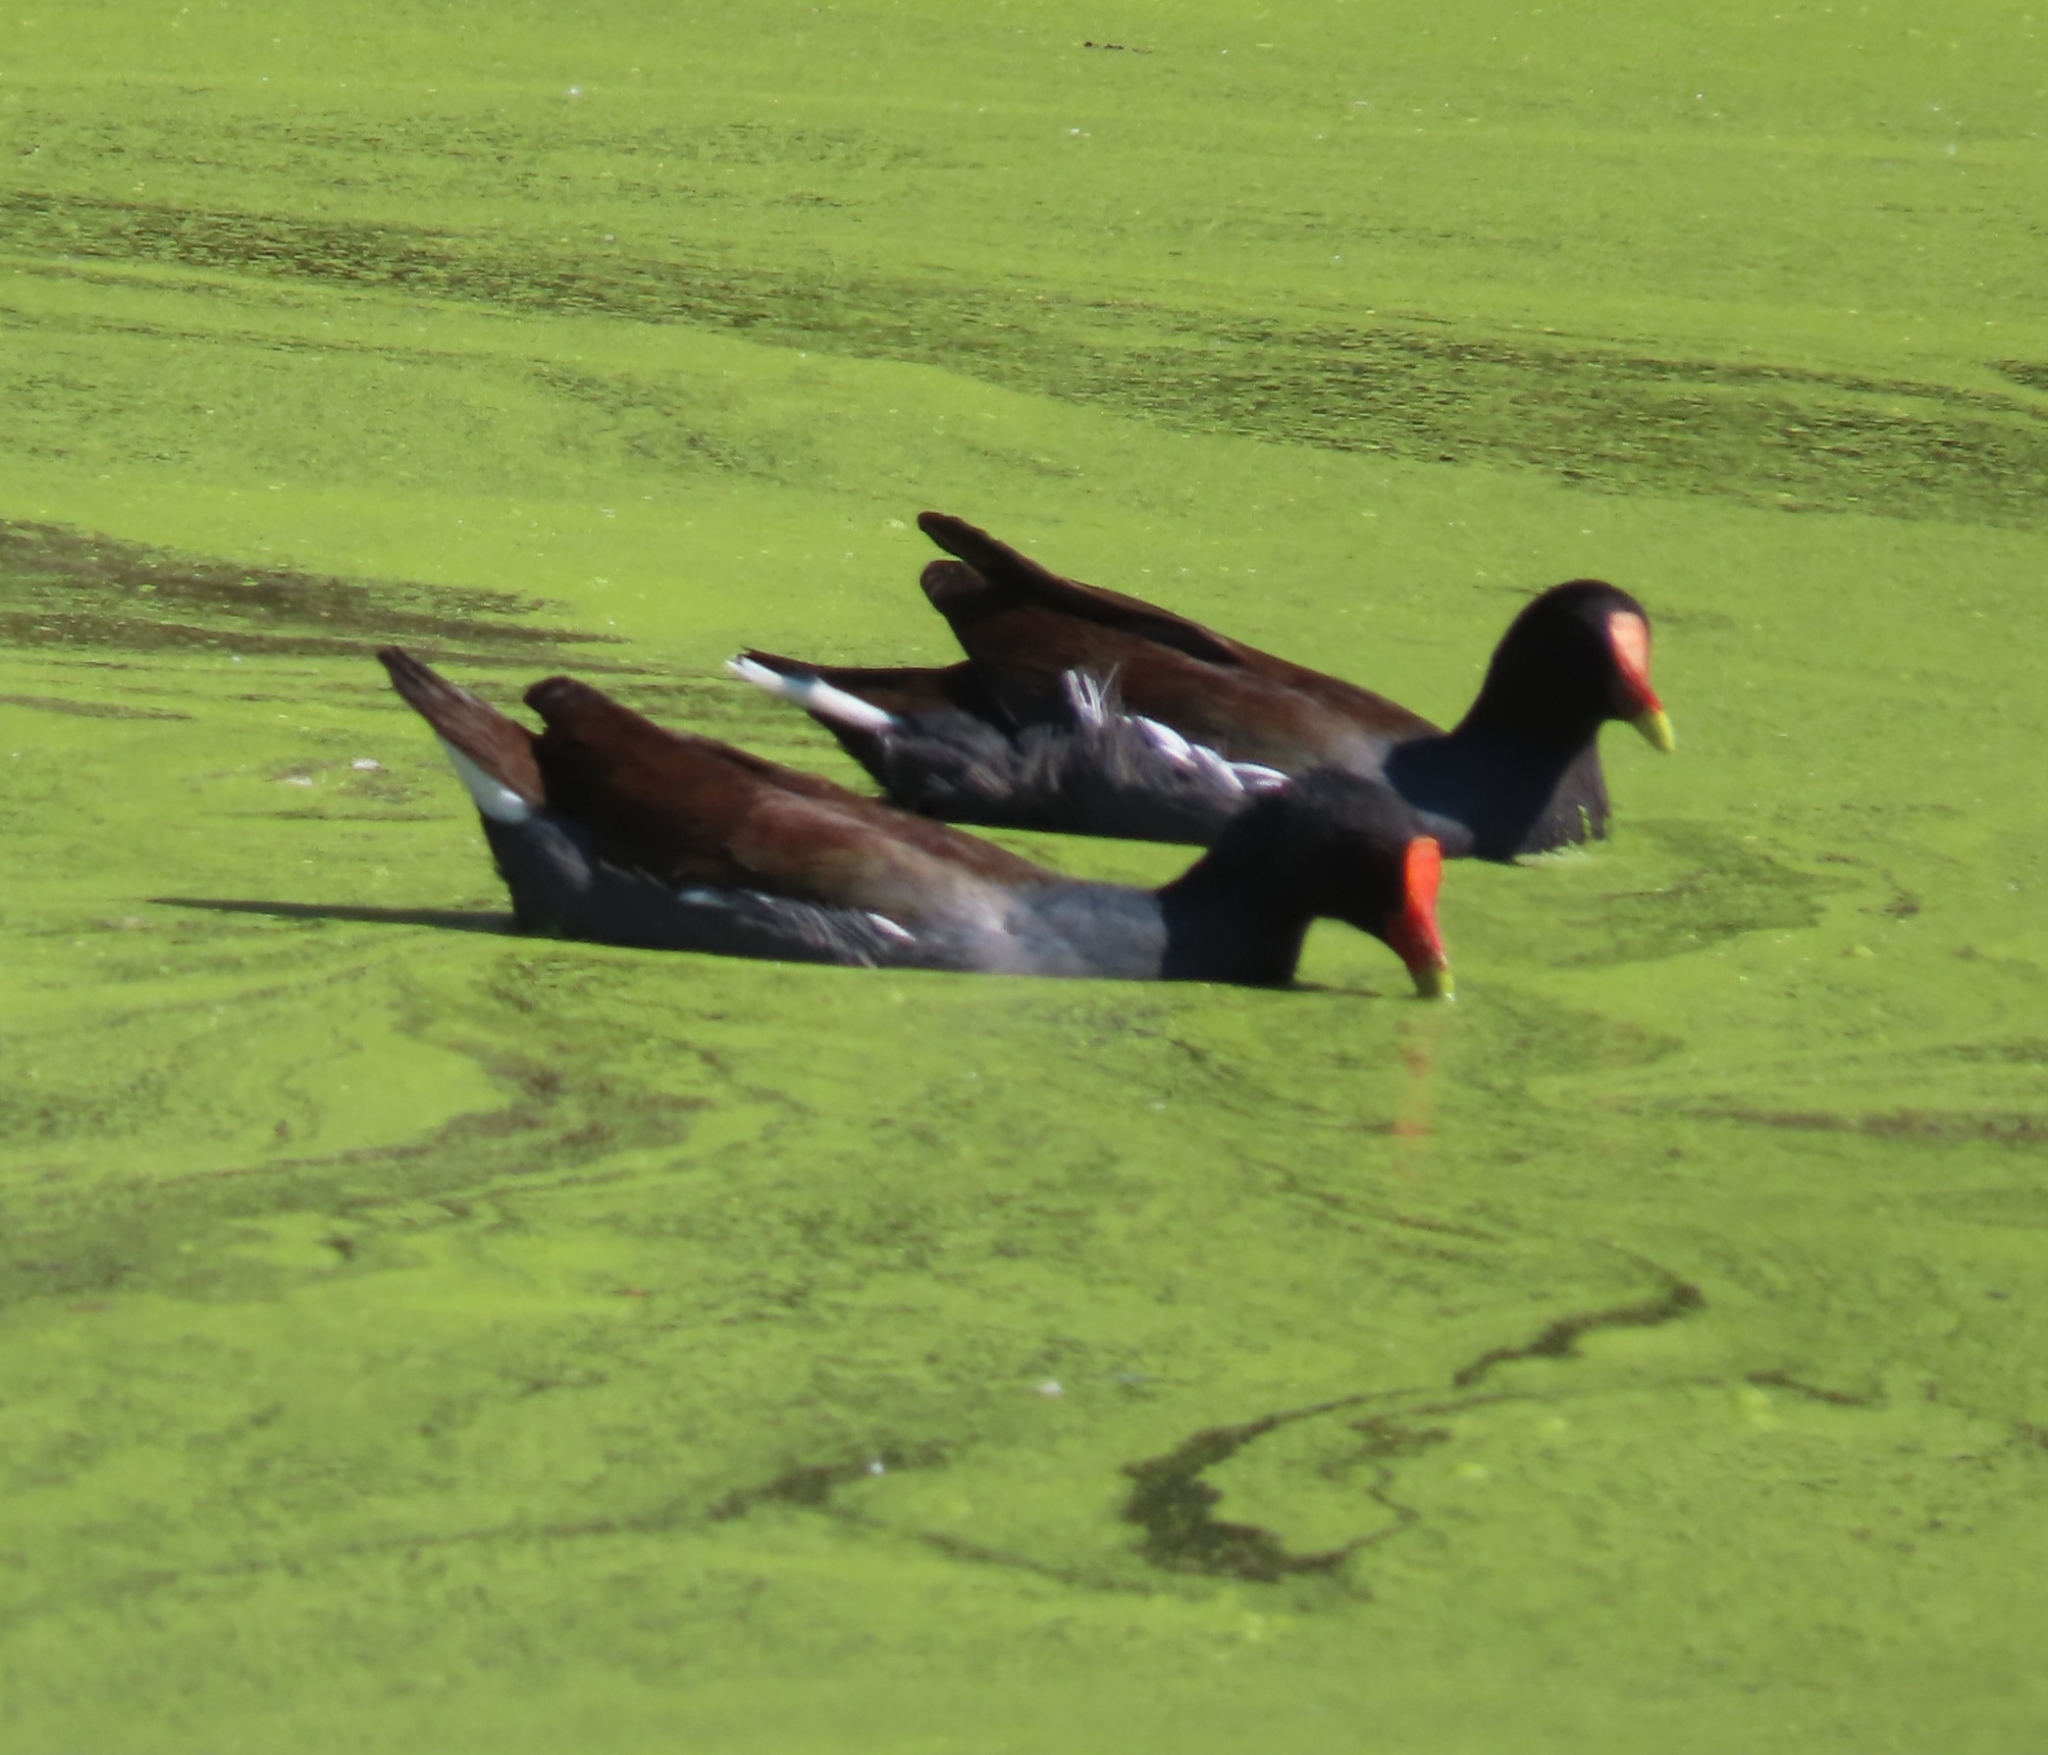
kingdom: Animalia
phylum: Chordata
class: Aves
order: Gruiformes
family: Rallidae
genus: Gallinula
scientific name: Gallinula chloropus
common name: Common moorhen
